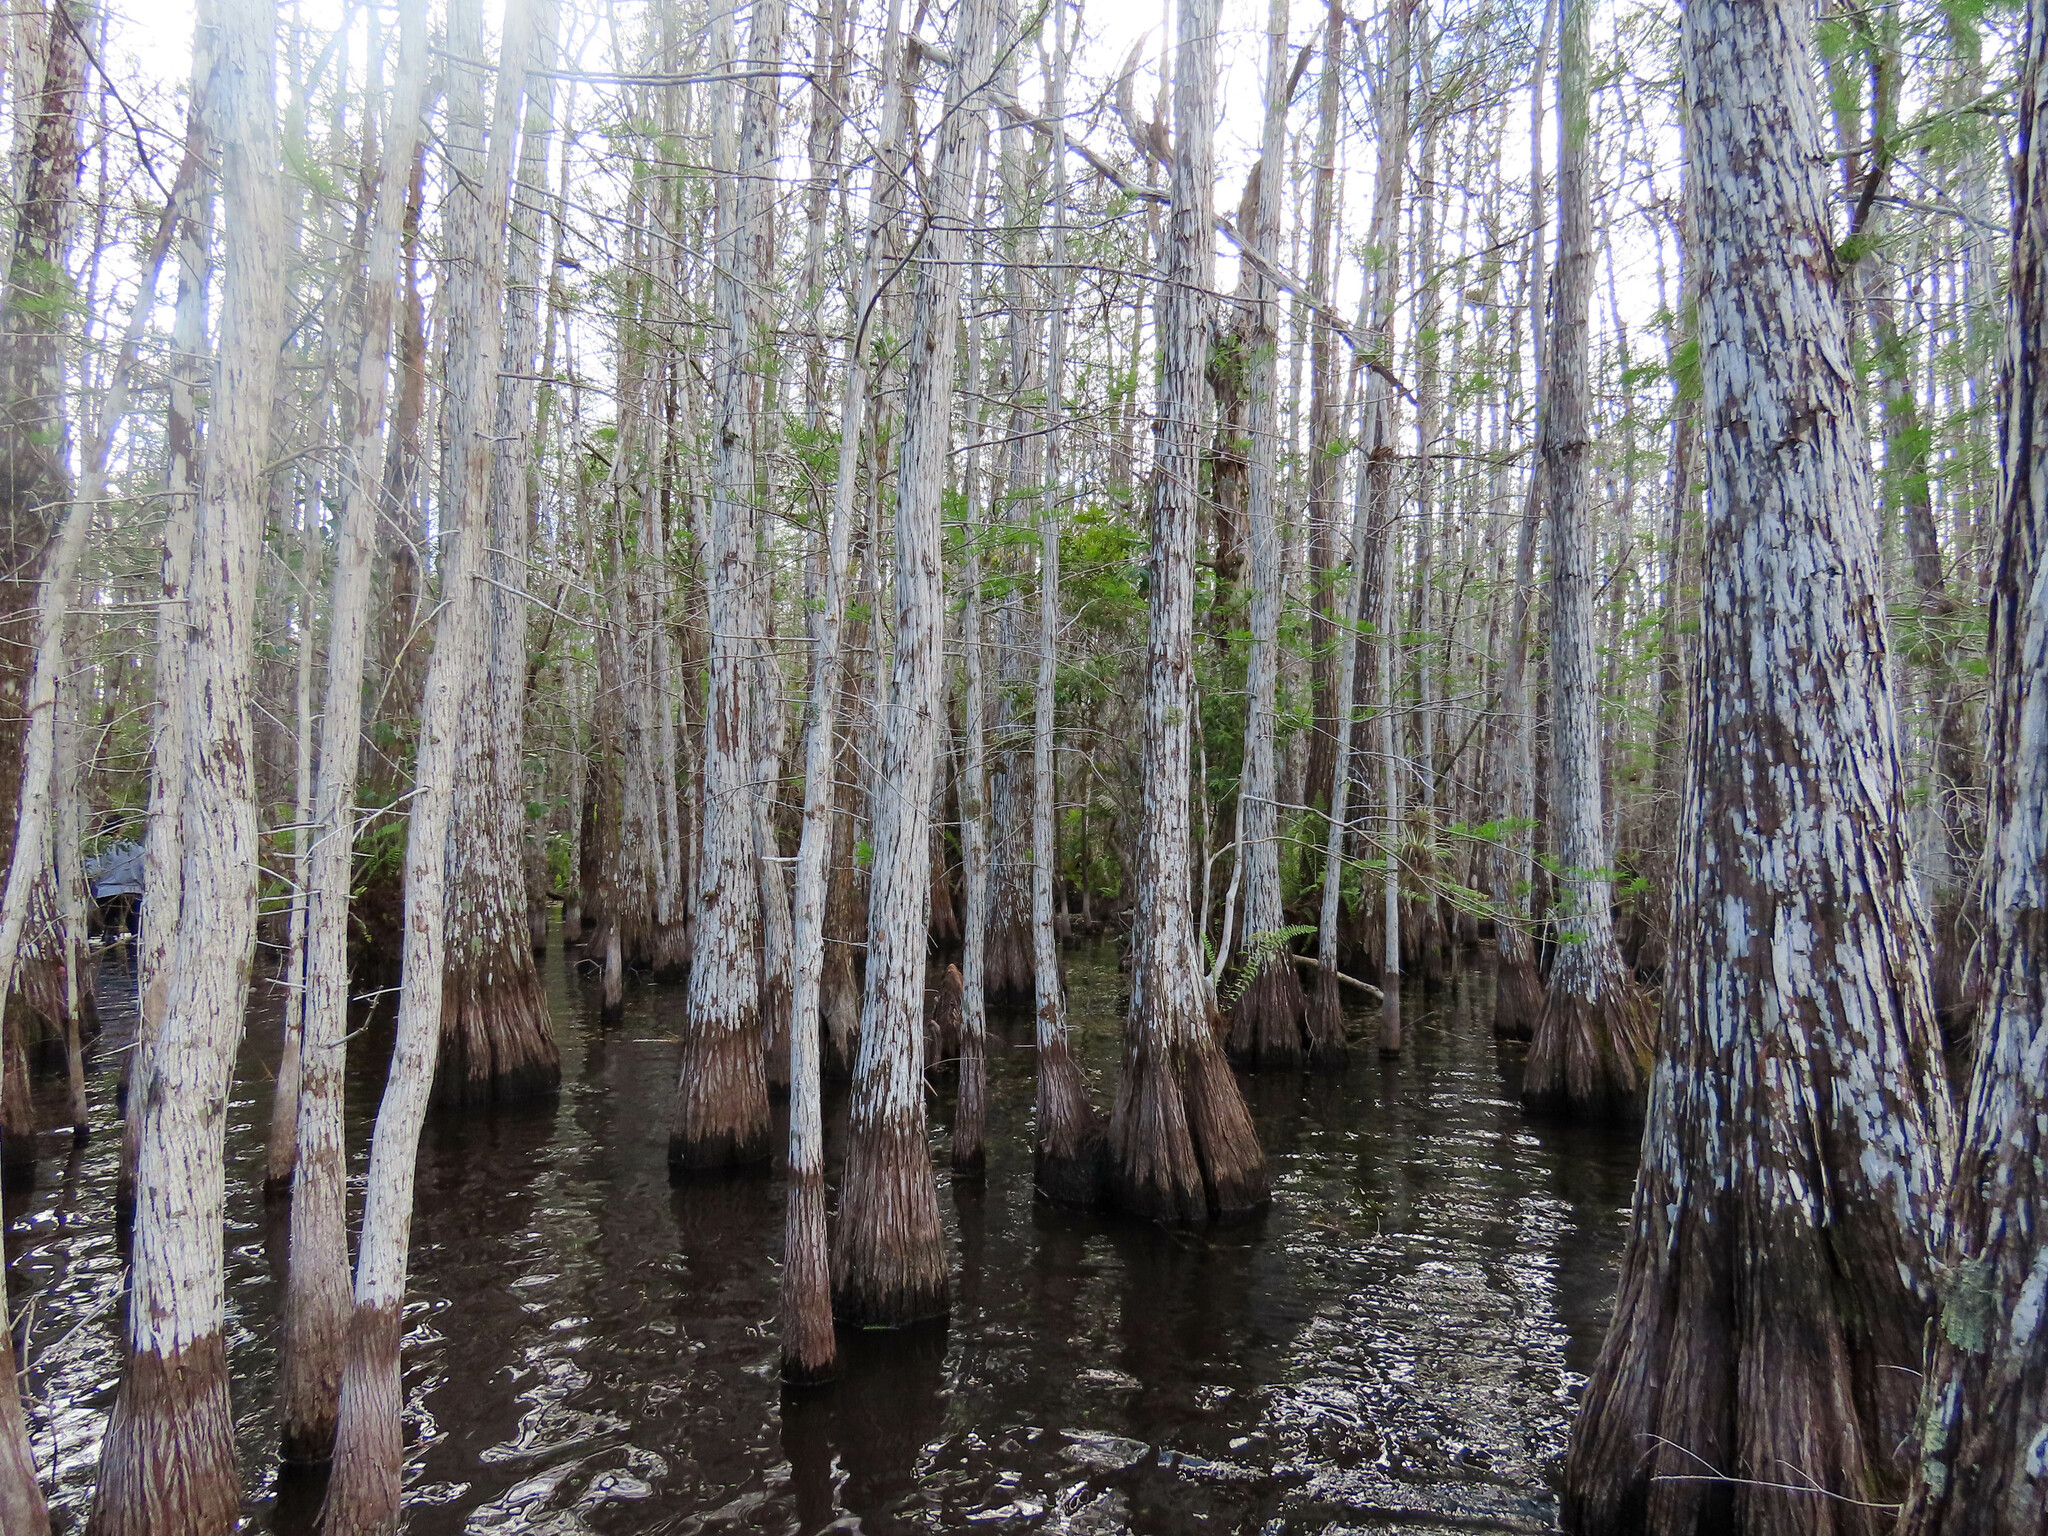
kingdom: Plantae
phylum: Tracheophyta
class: Pinopsida
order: Pinales
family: Cupressaceae
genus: Taxodium
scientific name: Taxodium distichum
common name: Bald cypress
